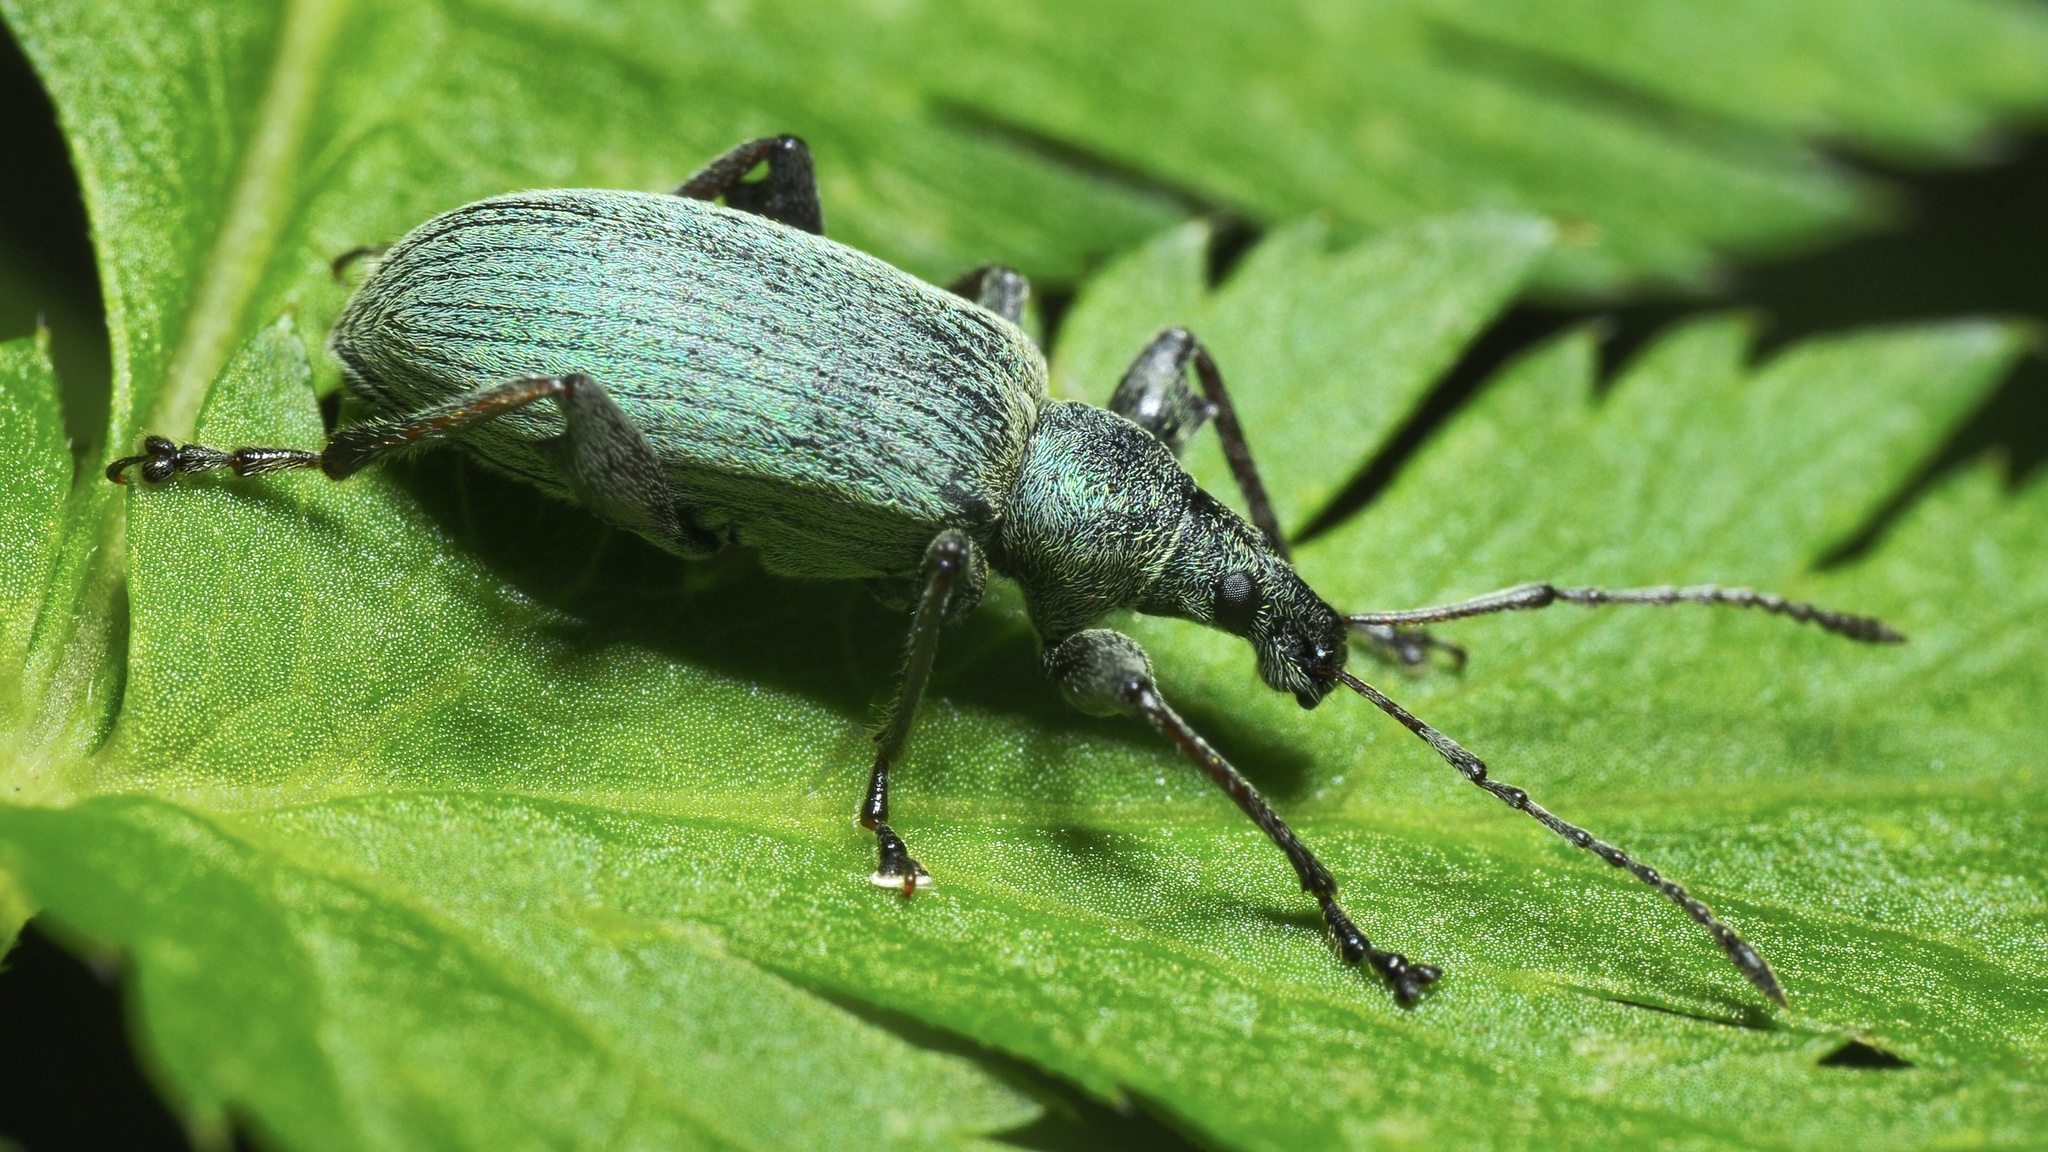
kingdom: Animalia
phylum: Arthropoda
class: Insecta
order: Coleoptera
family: Curculionidae
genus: Phyllobius
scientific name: Phyllobius glaucus
